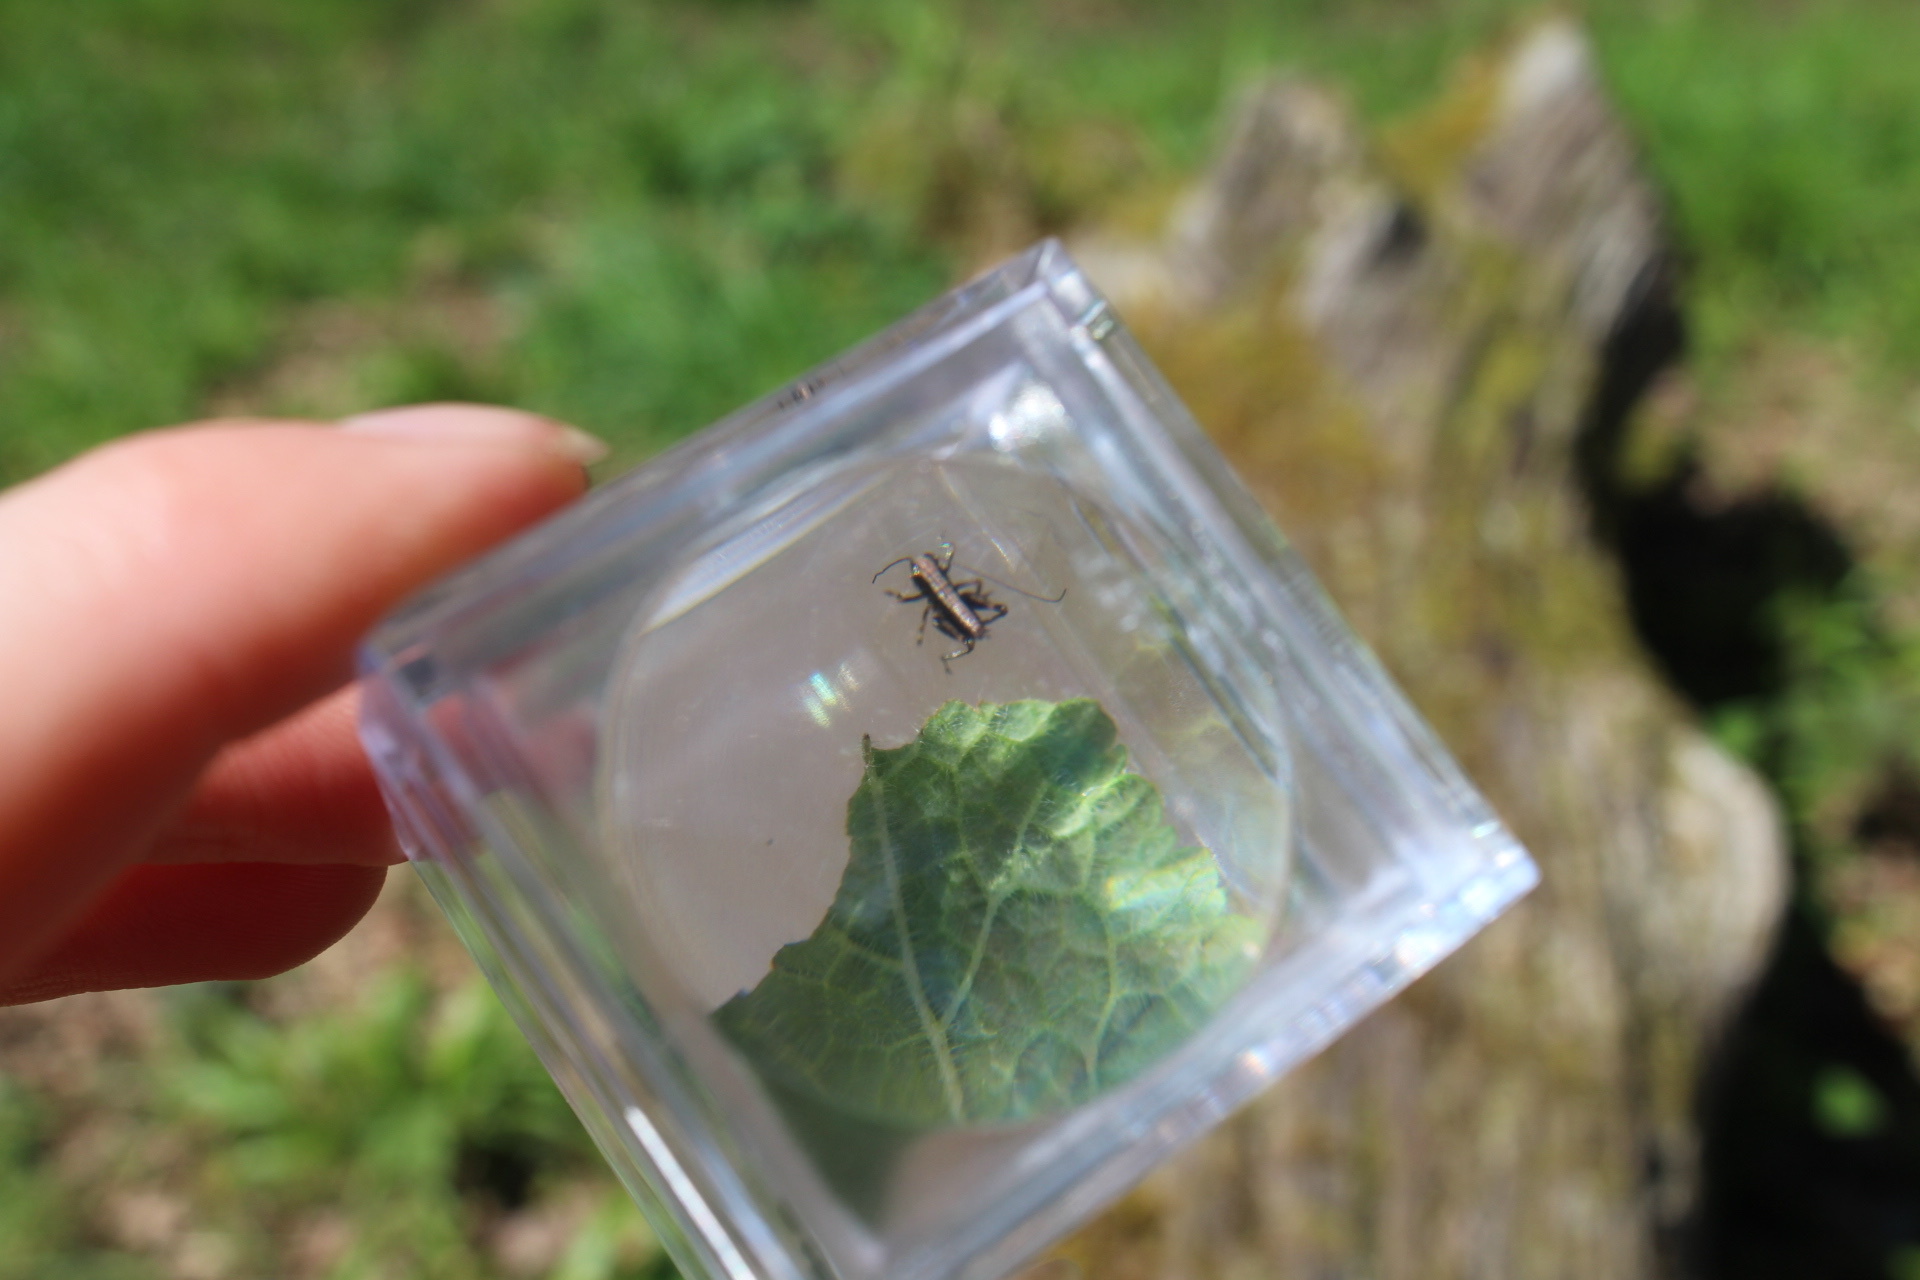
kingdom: Animalia
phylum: Arthropoda
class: Insecta
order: Orthoptera
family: Tettigoniidae
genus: Pholidoptera
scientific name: Pholidoptera griseoaptera
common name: Dark bush-cricket
